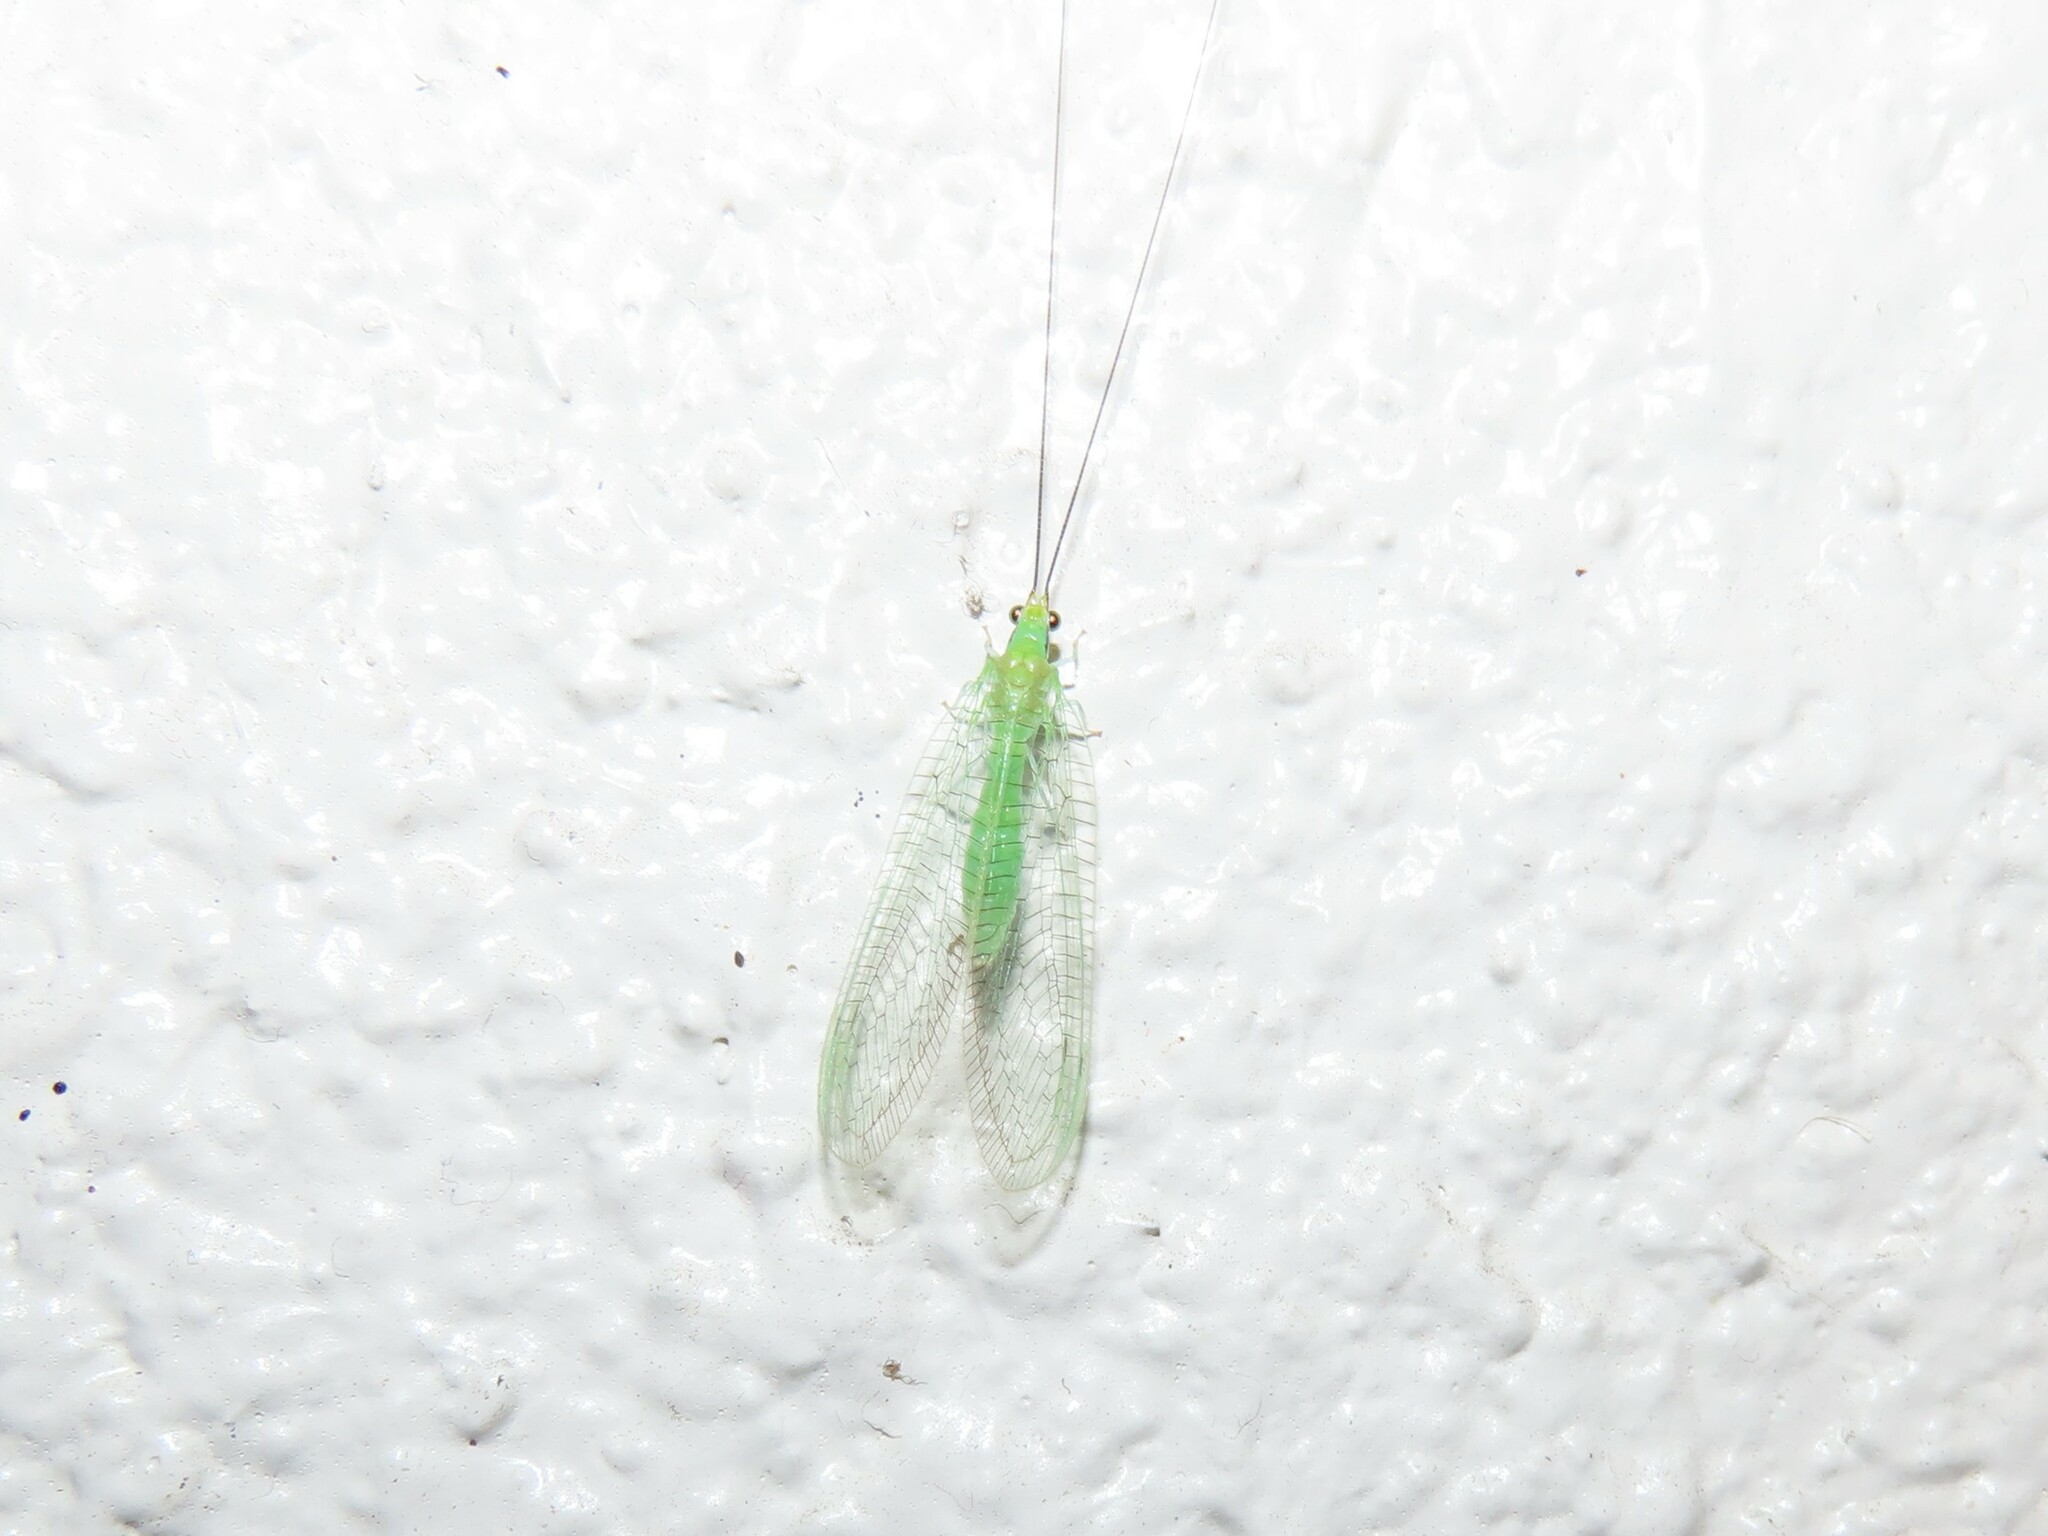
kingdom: Animalia
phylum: Arthropoda
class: Insecta
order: Neuroptera
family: Chrysopidae
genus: Ceraeochrysa
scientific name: Ceraeochrysa lineaticornis
